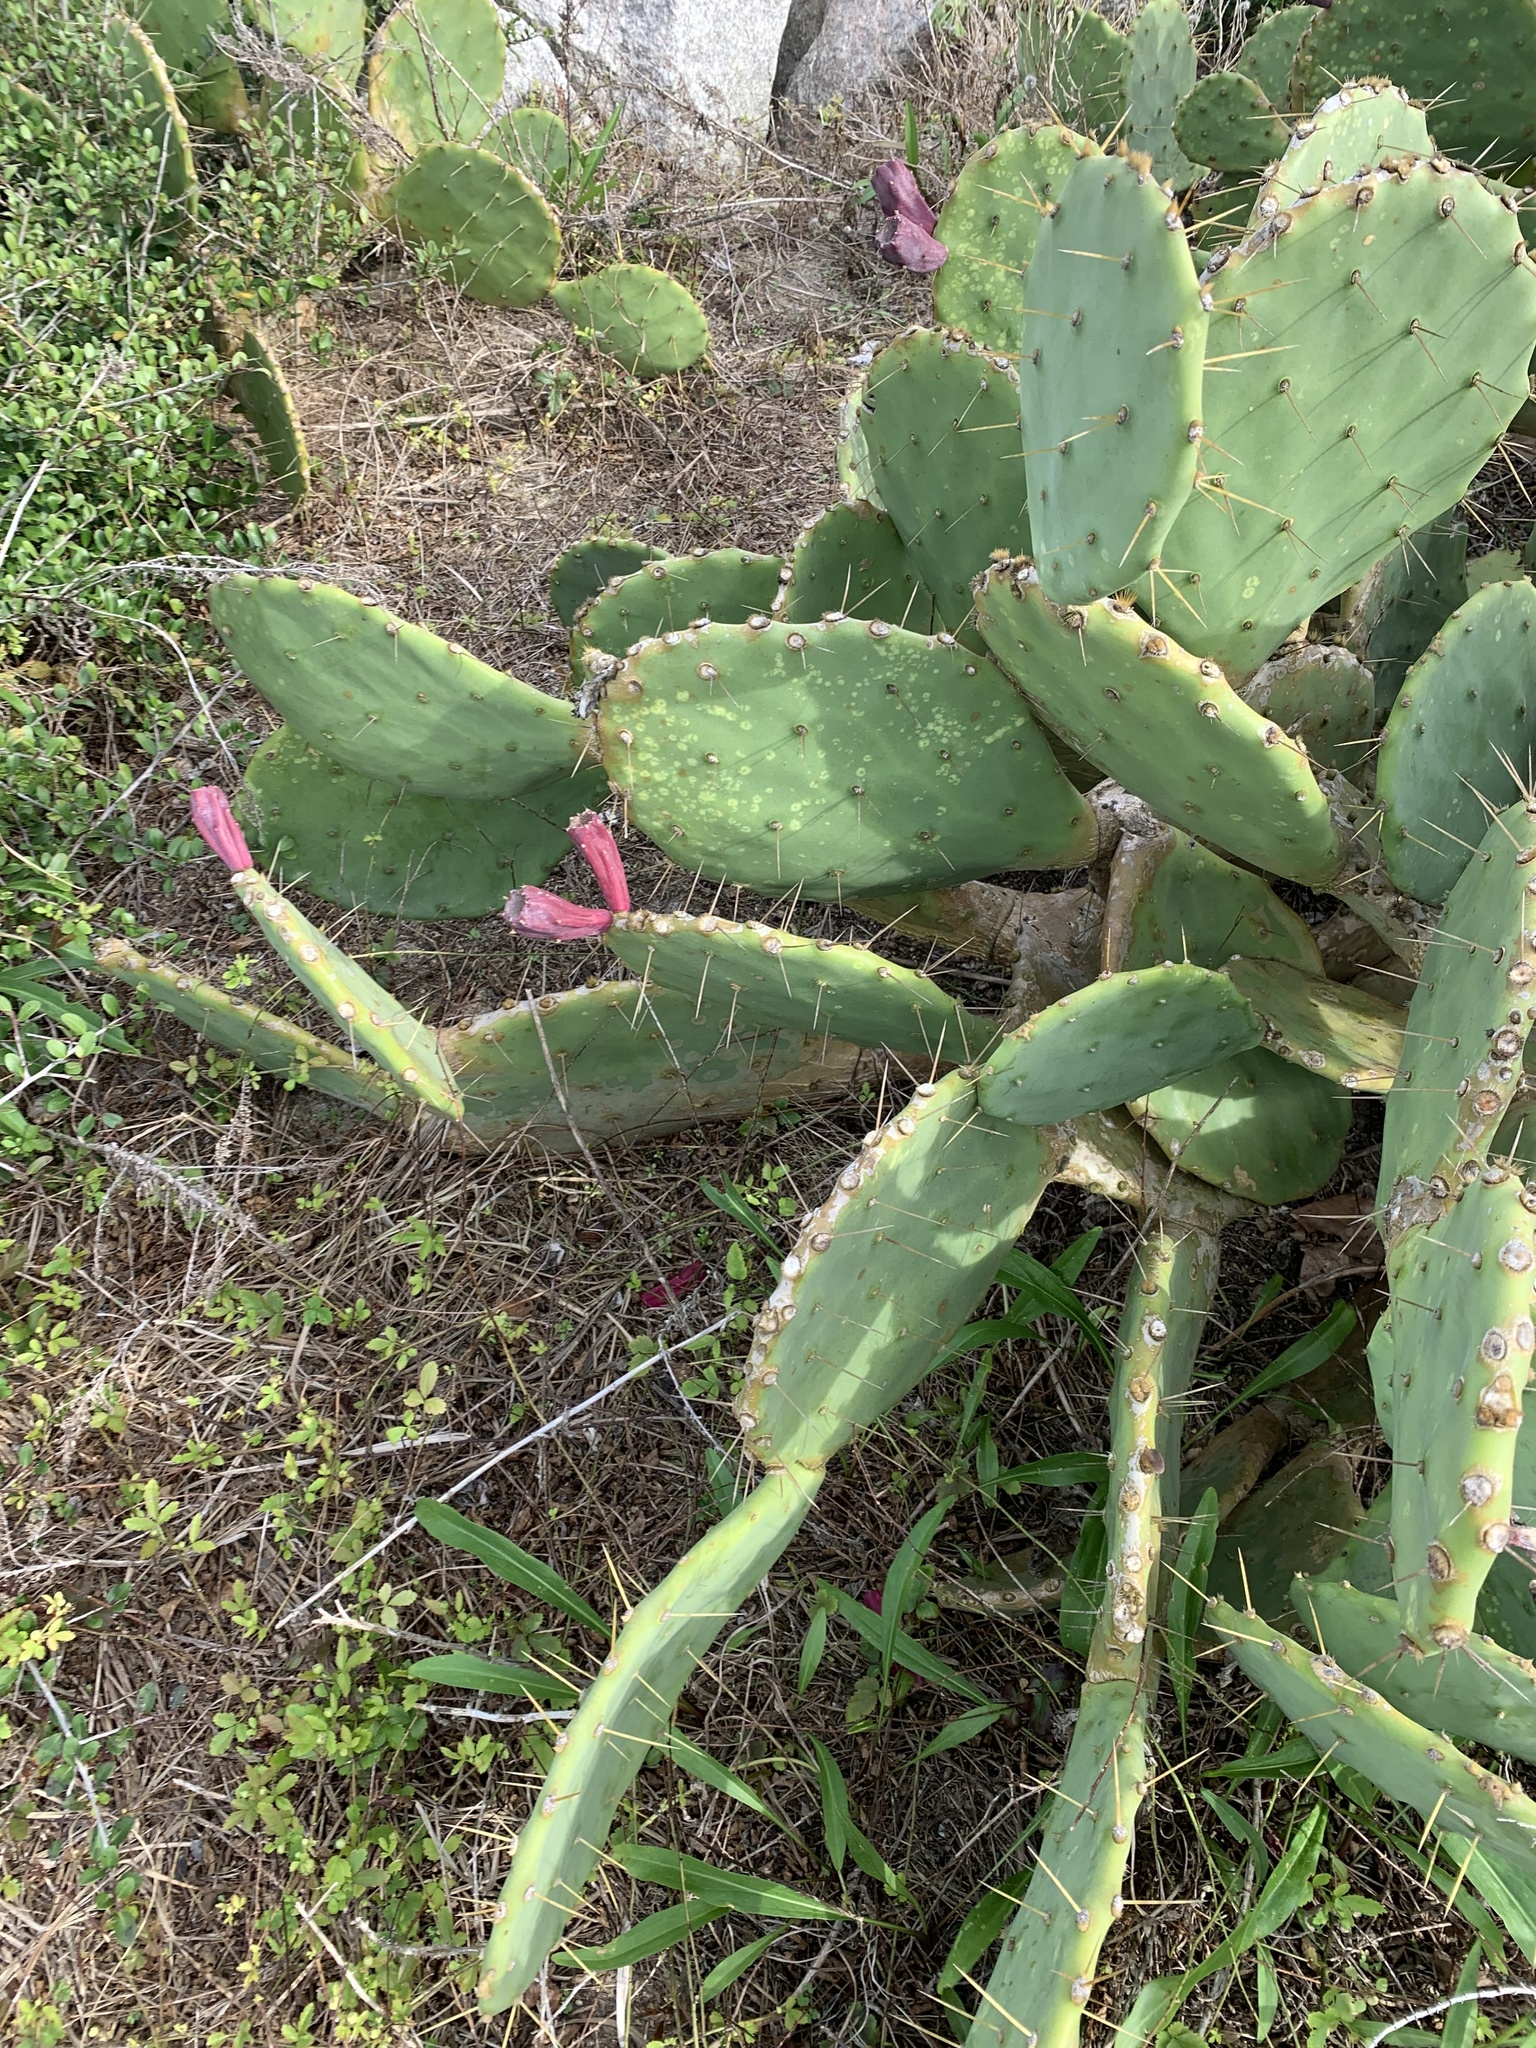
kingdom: Plantae
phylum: Tracheophyta
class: Magnoliopsida
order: Caryophyllales
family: Cactaceae
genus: Opuntia
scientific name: Opuntia tunoidea
